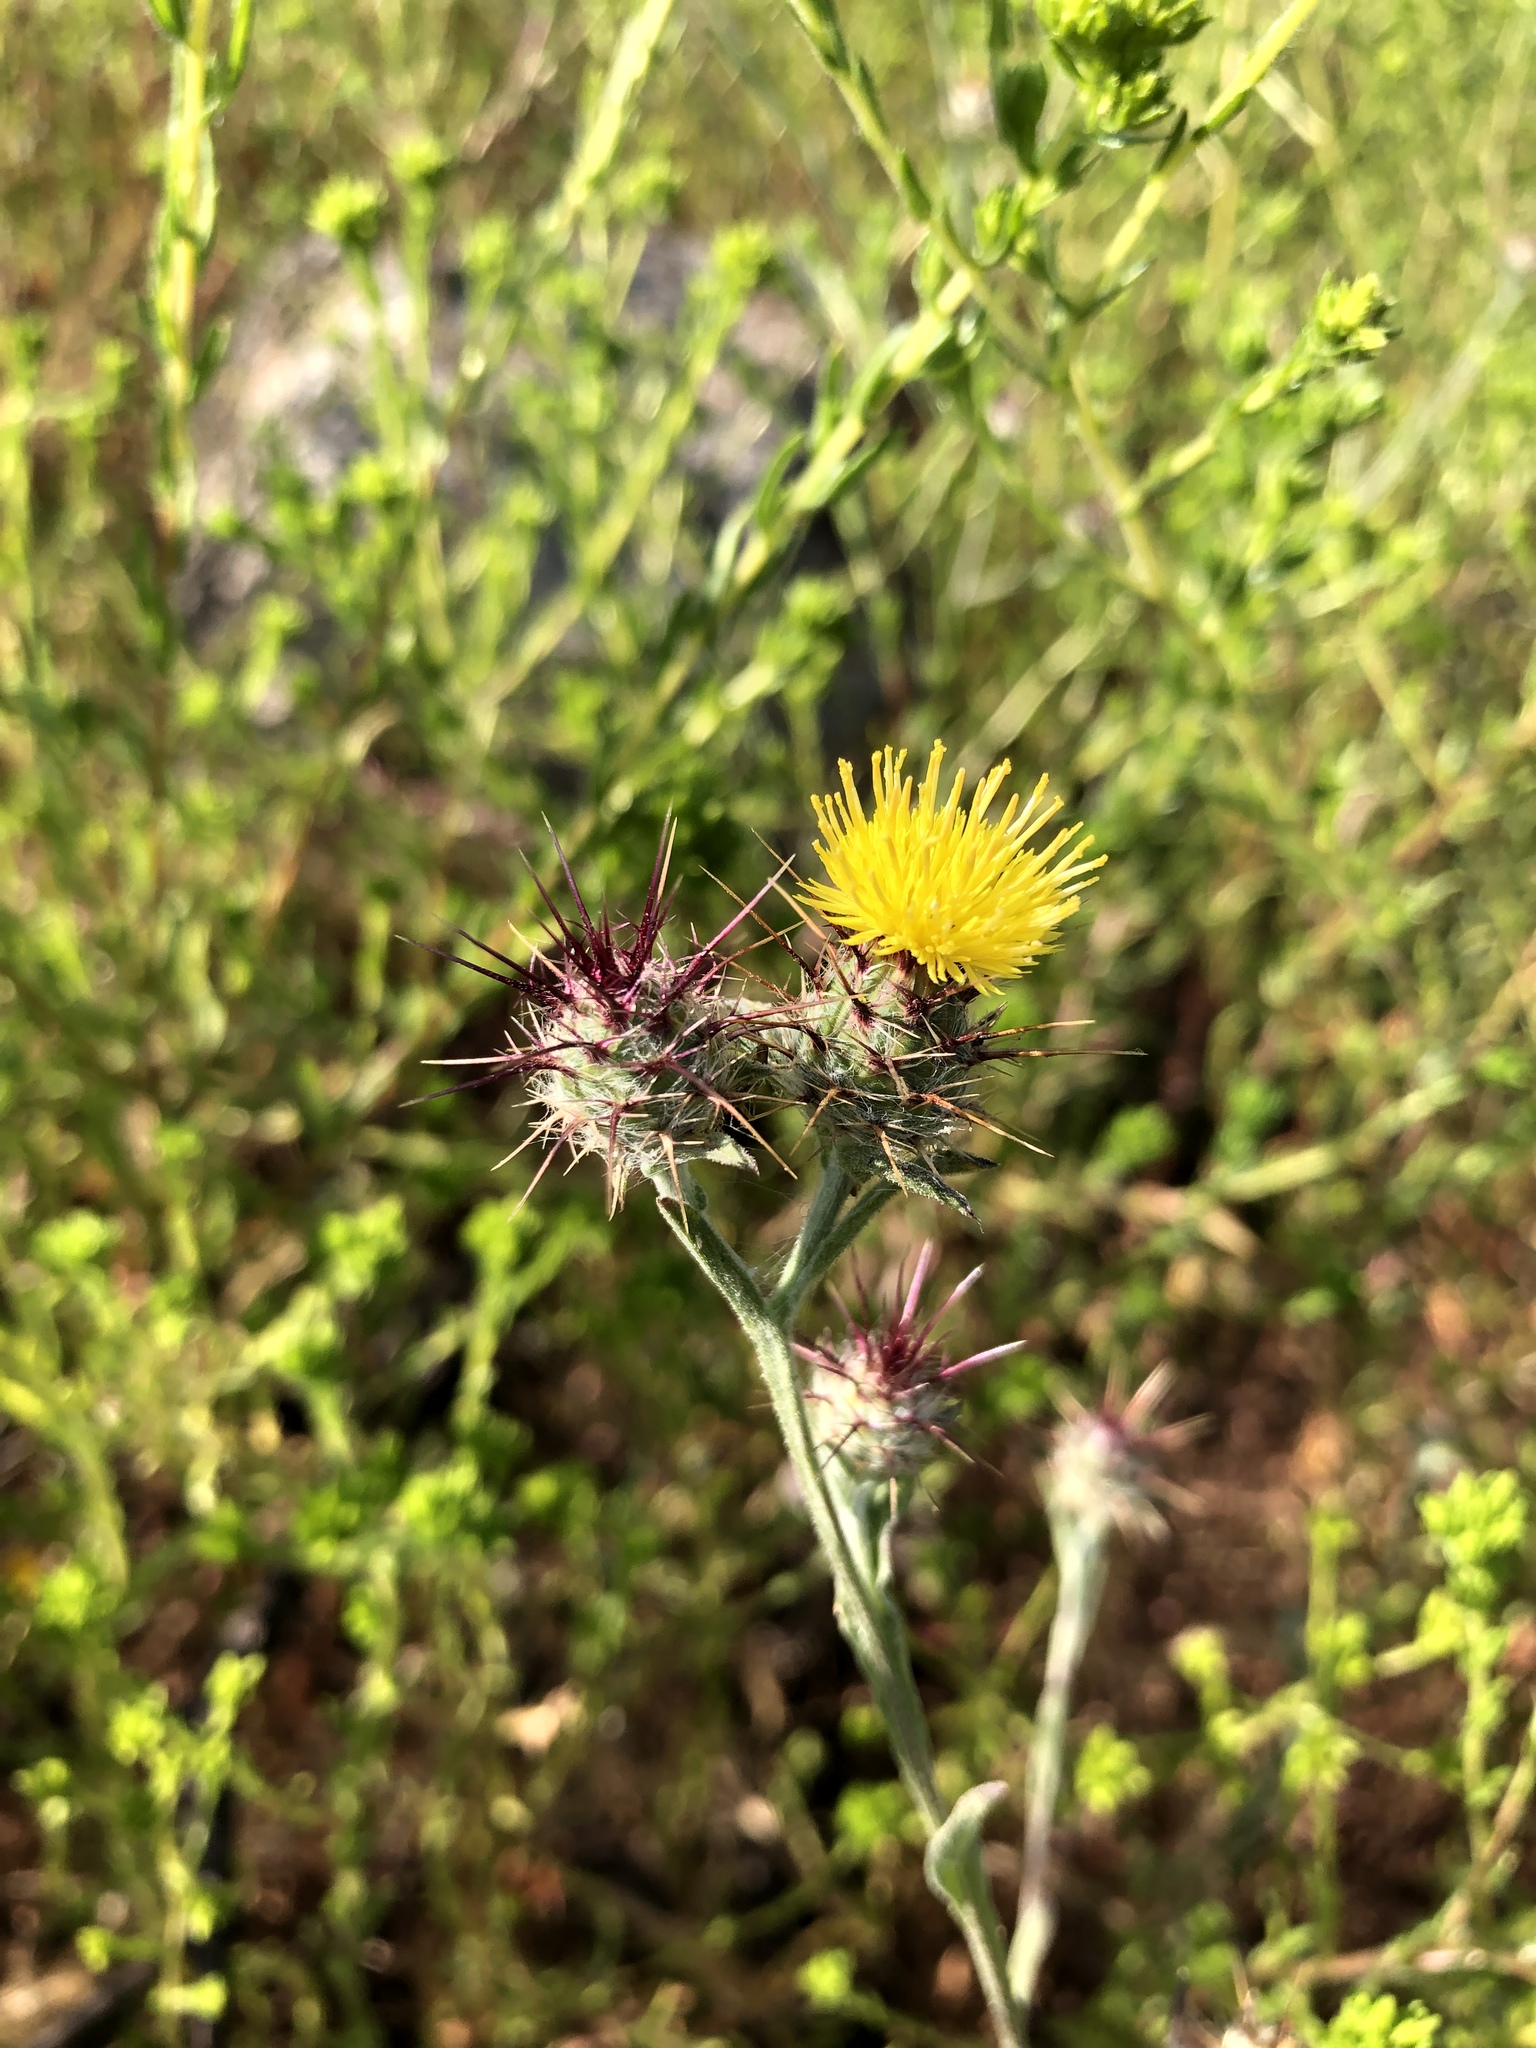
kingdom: Plantae
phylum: Tracheophyta
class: Magnoliopsida
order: Asterales
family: Asteraceae
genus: Centaurea
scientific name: Centaurea melitensis
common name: Maltese star-thistle
